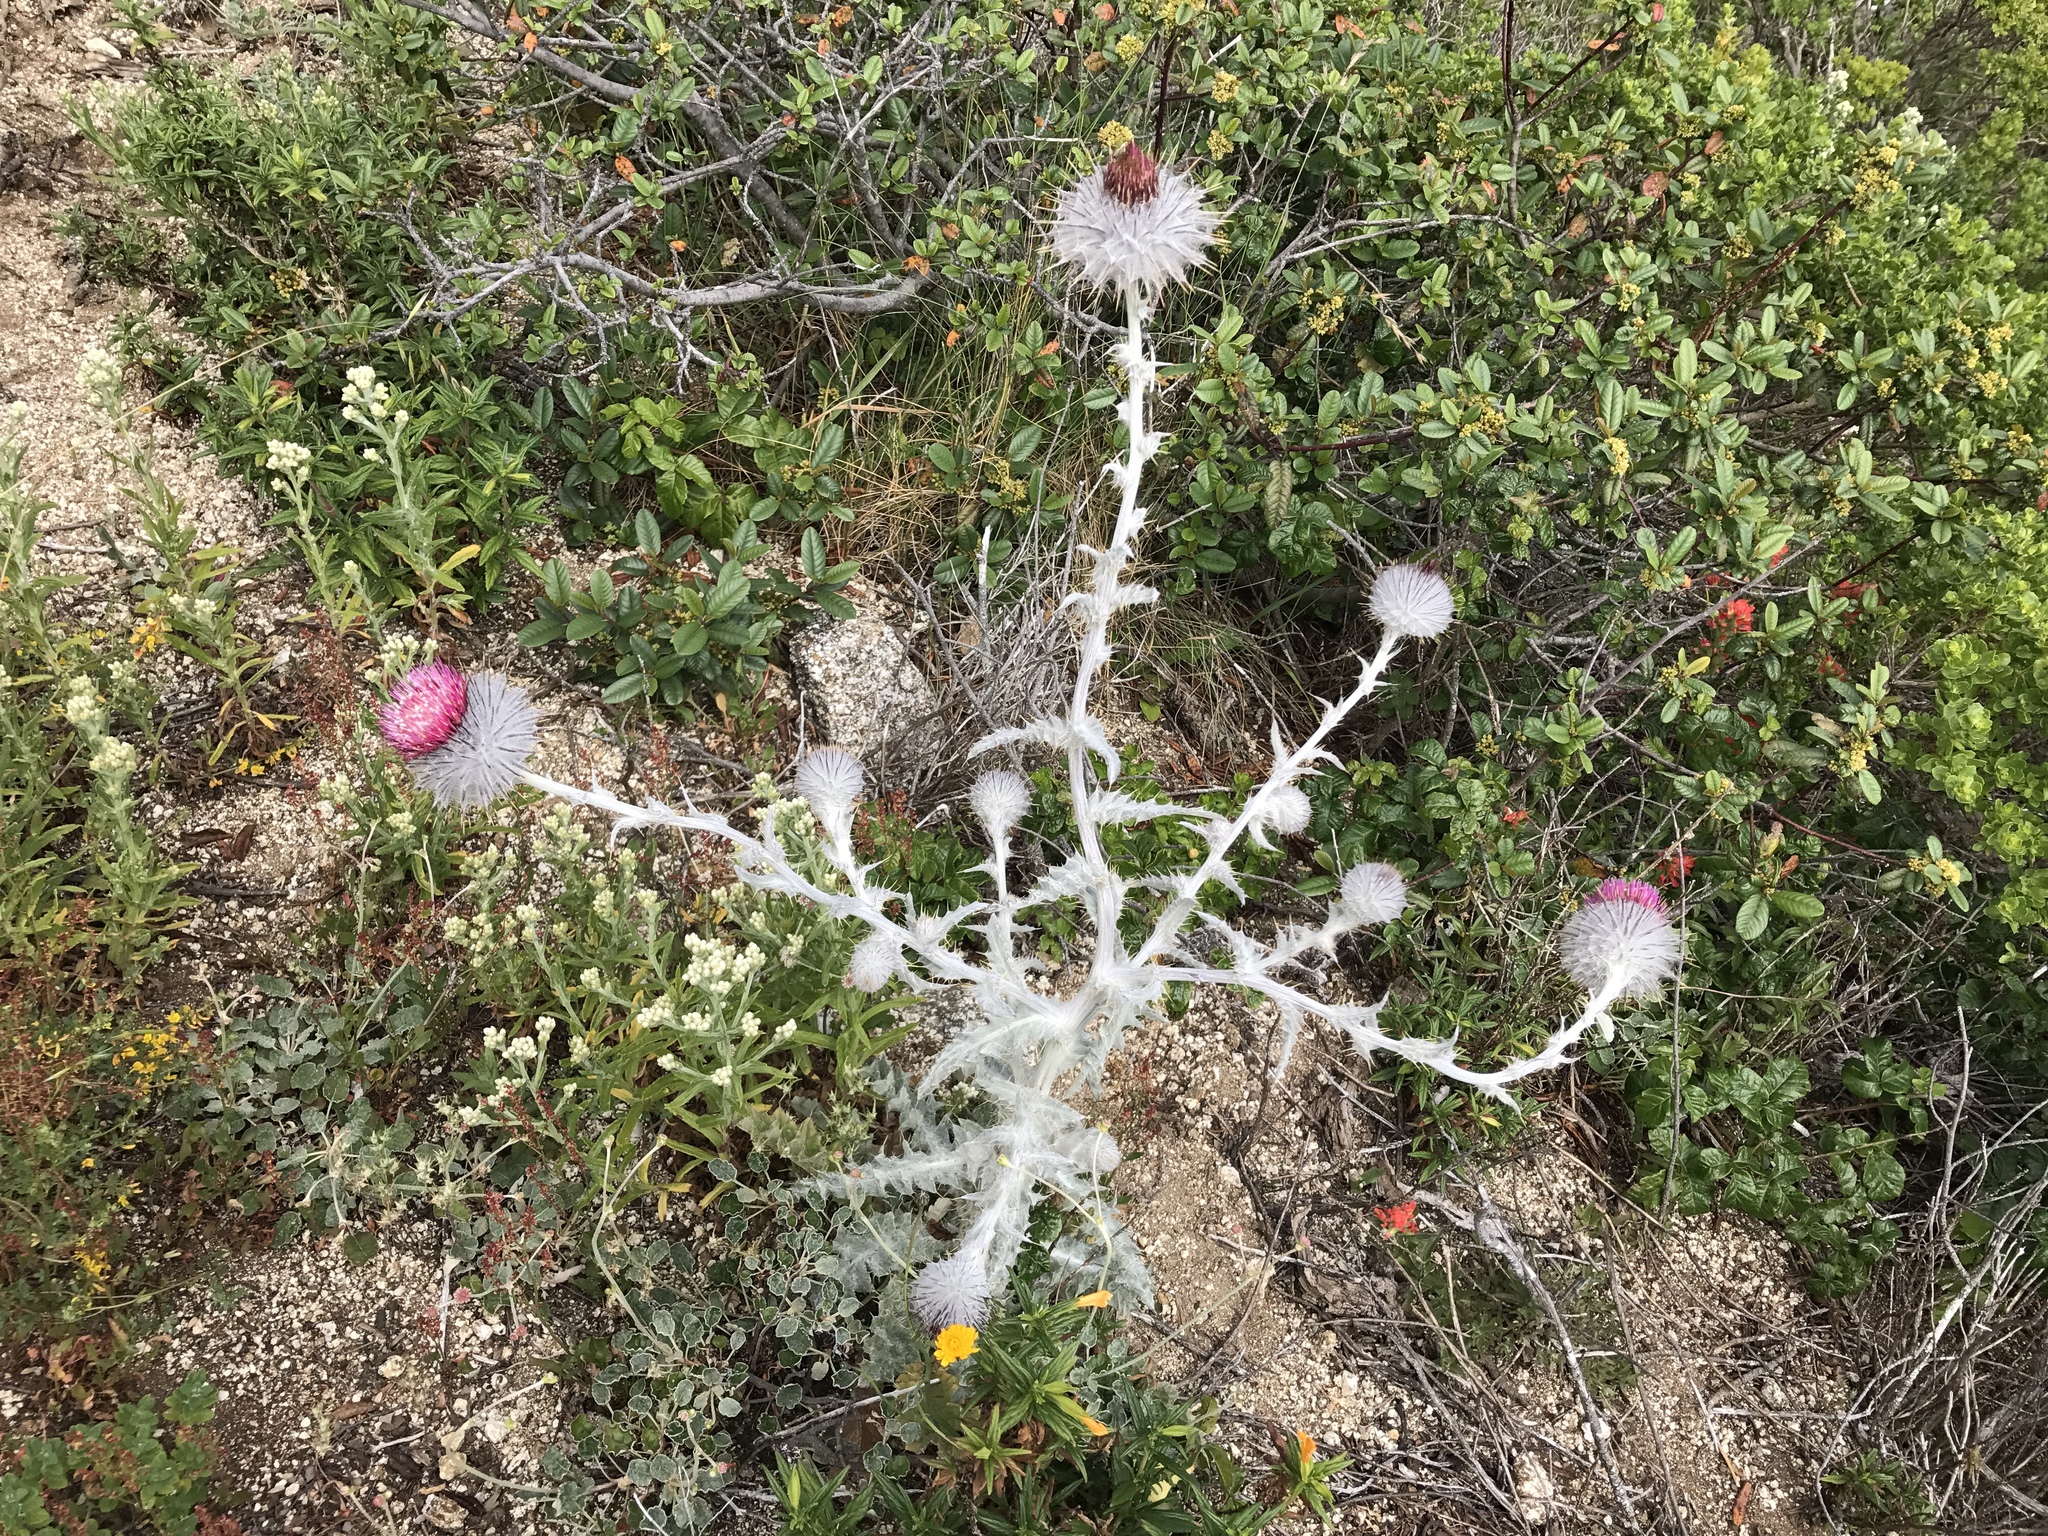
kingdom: Plantae
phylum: Tracheophyta
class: Magnoliopsida
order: Asterales
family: Asteraceae
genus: Cirsium
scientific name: Cirsium occidentale
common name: Western thistle
